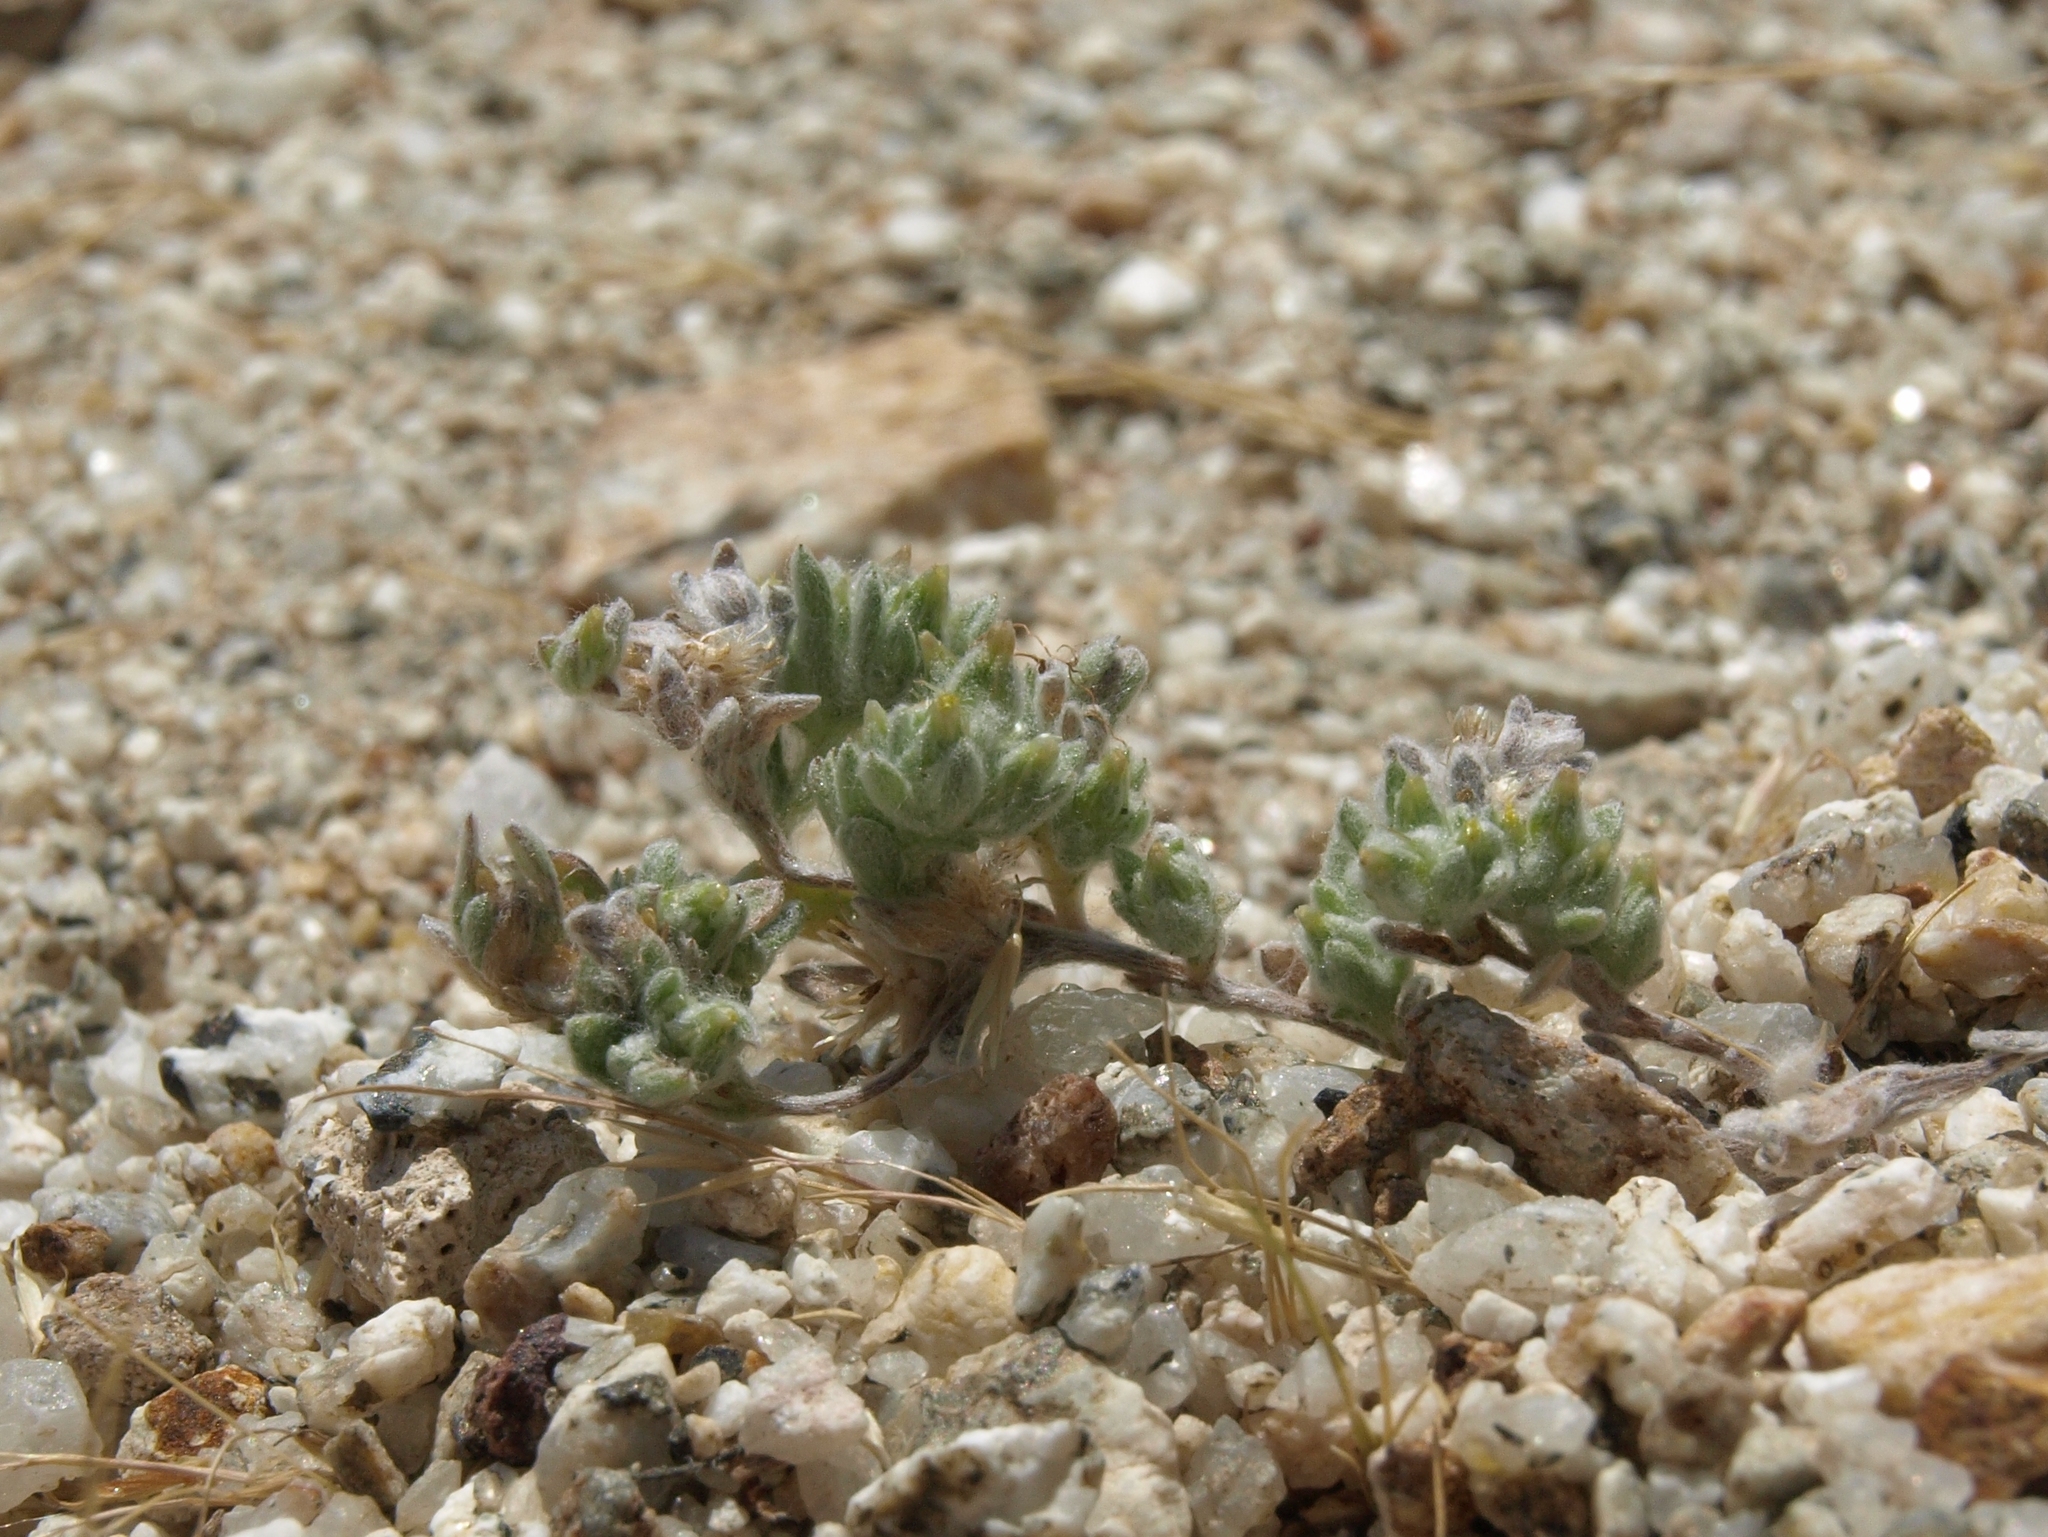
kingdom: Plantae
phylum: Tracheophyta
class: Magnoliopsida
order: Asterales
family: Asteraceae
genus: Logfia
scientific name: Logfia depressa
